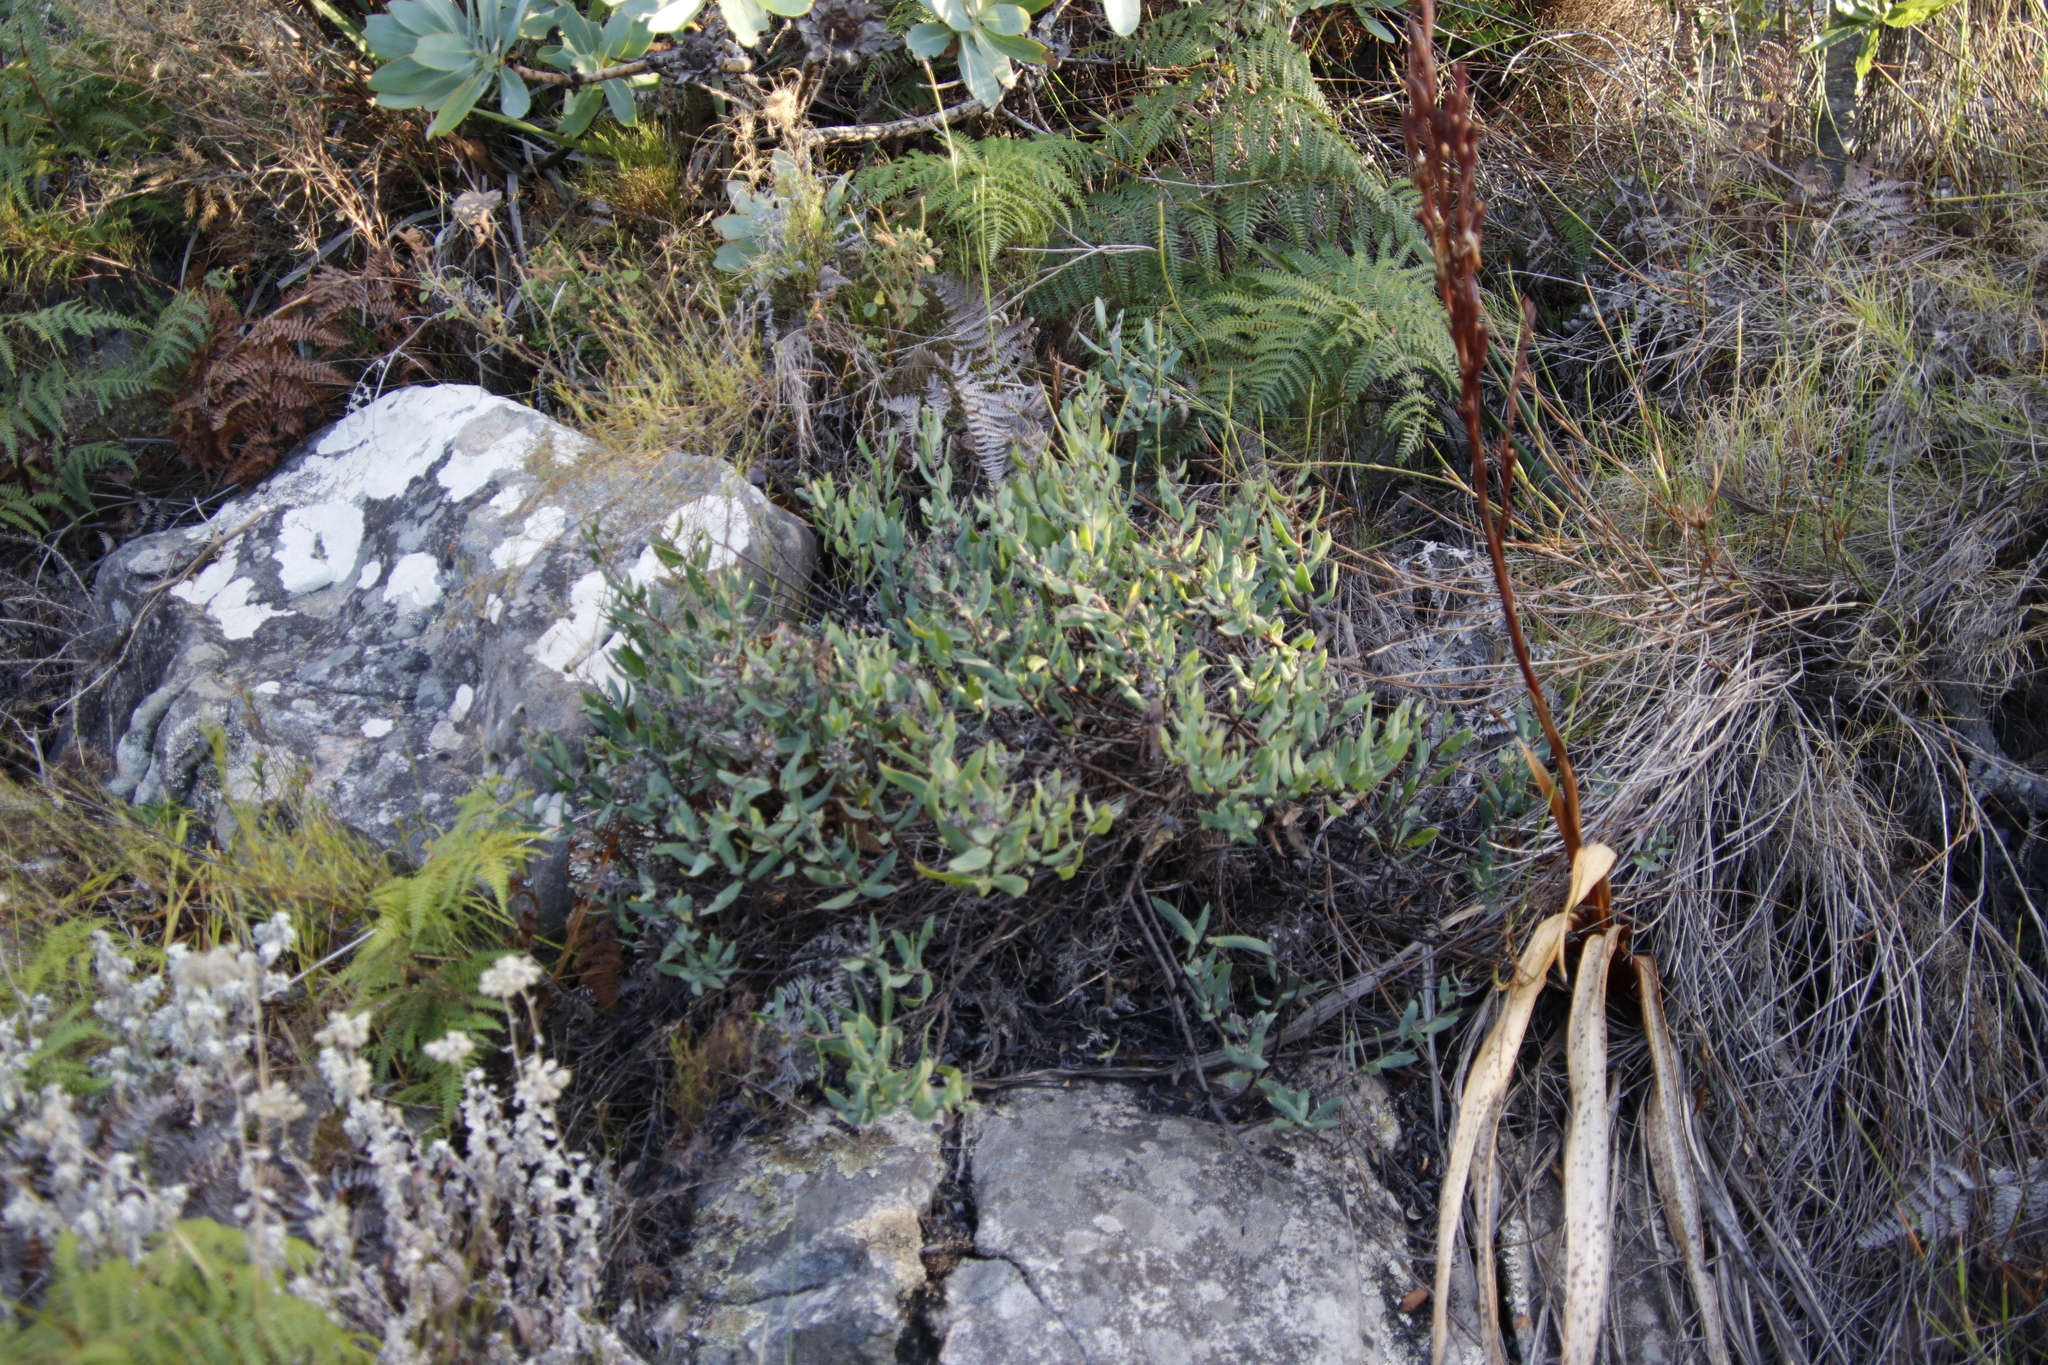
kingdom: Plantae
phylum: Tracheophyta
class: Magnoliopsida
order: Boraginales
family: Boraginaceae
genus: Lobostemon
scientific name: Lobostemon glaucophyllus
